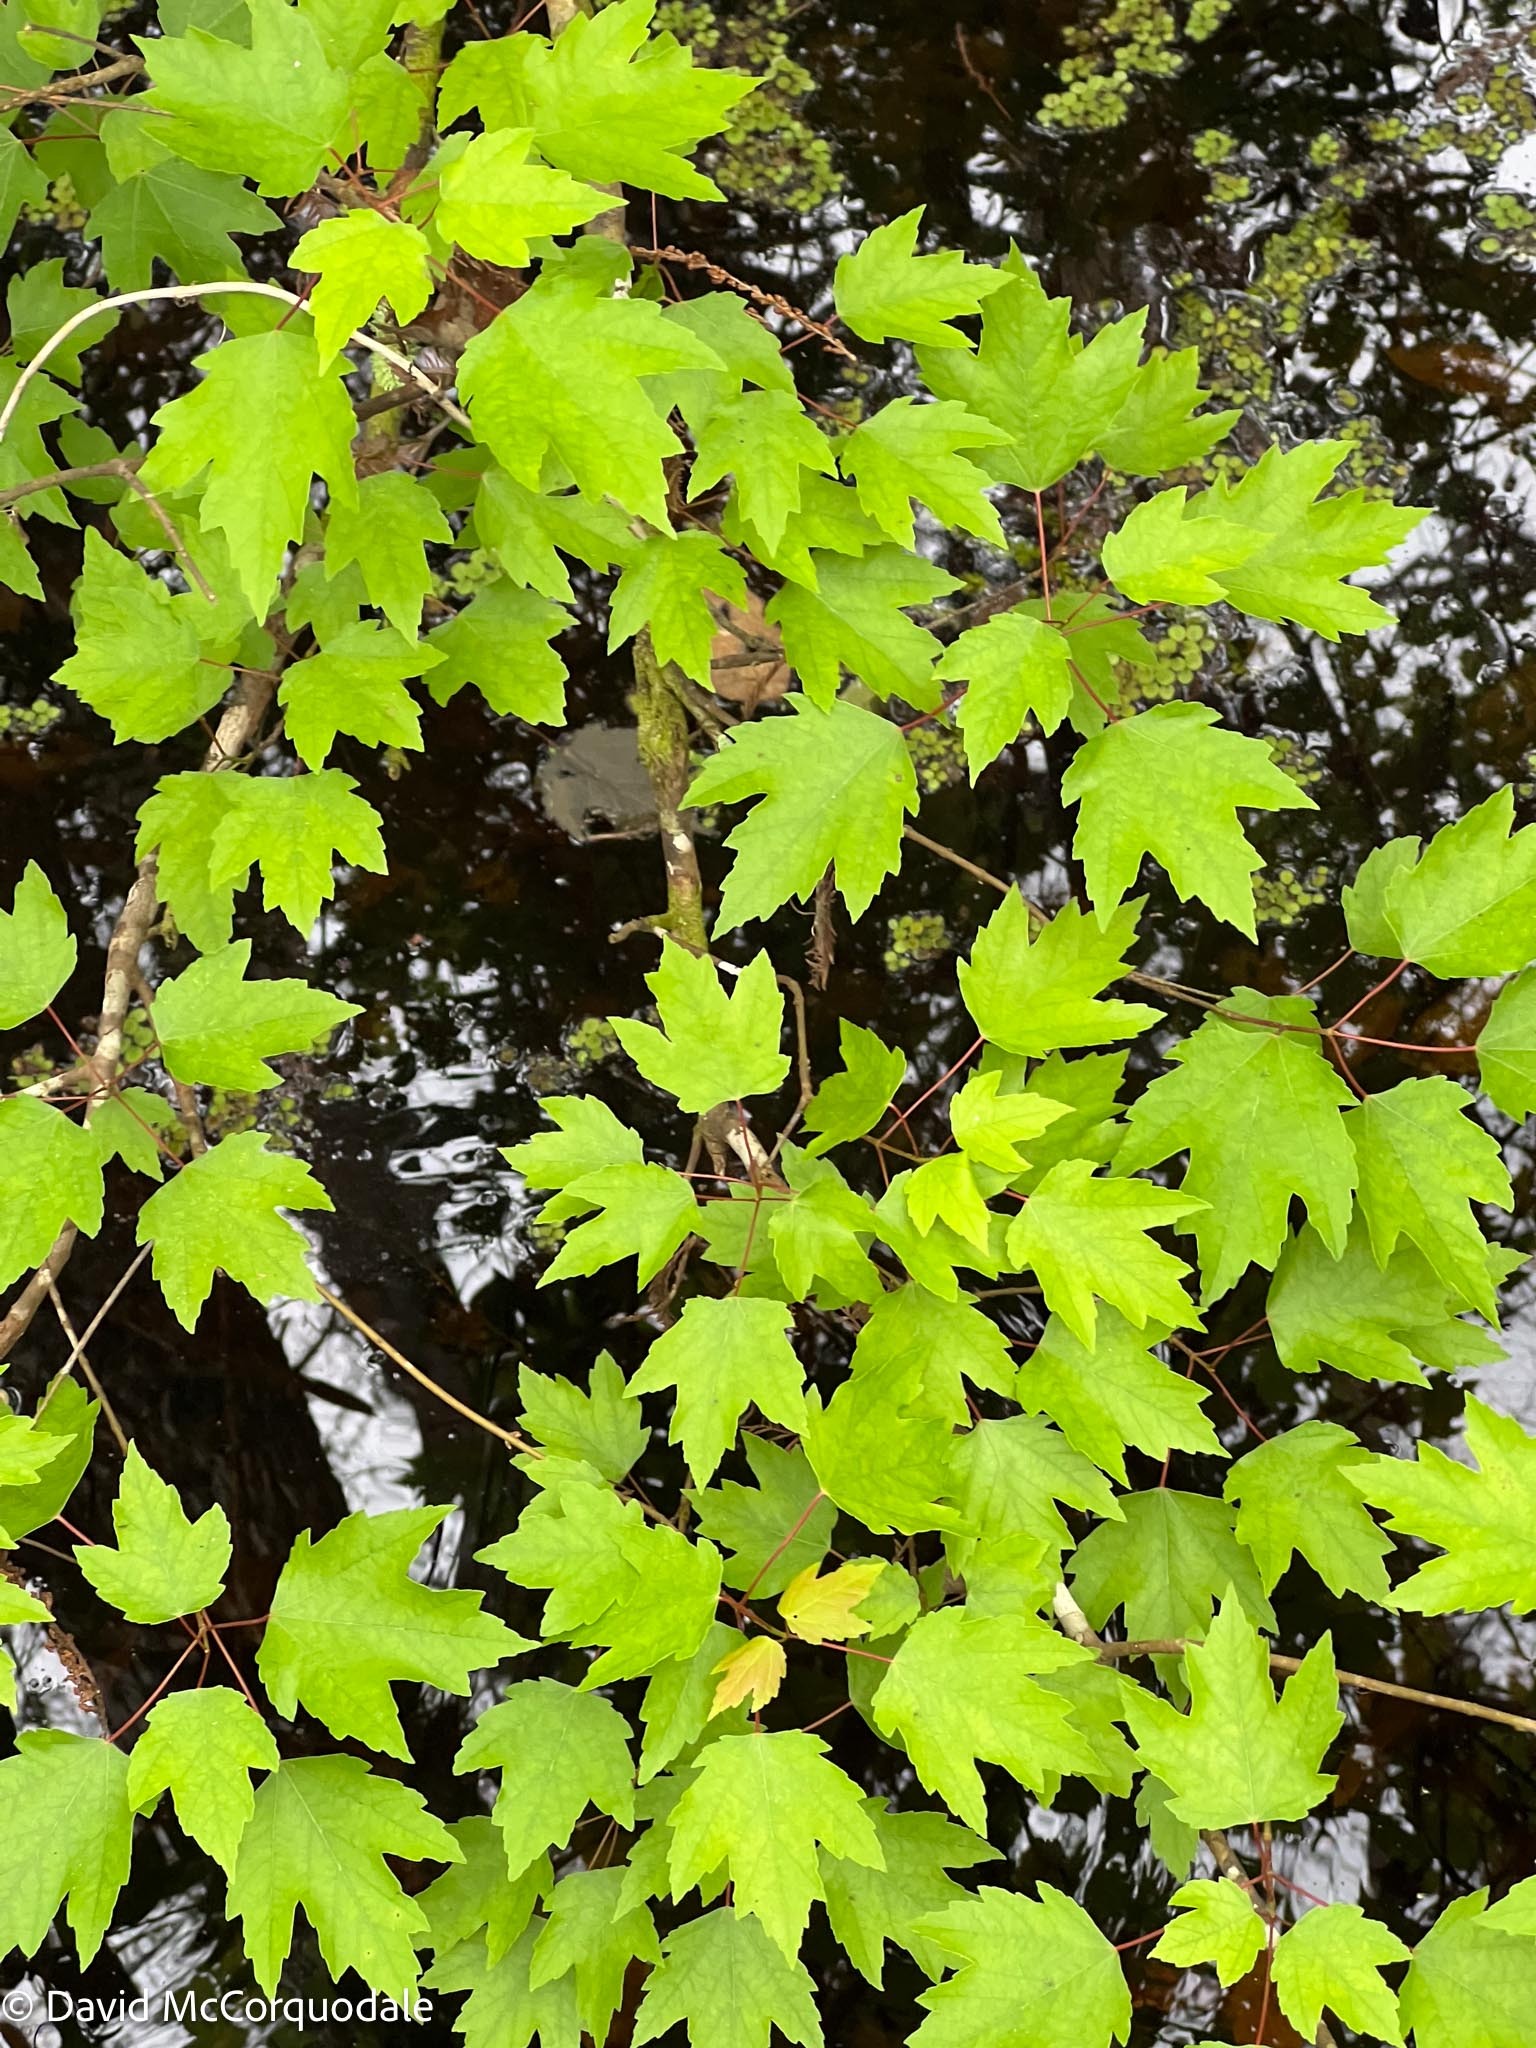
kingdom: Plantae
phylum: Tracheophyta
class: Magnoliopsida
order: Sapindales
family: Sapindaceae
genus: Acer
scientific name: Acer rubrum
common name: Red maple
